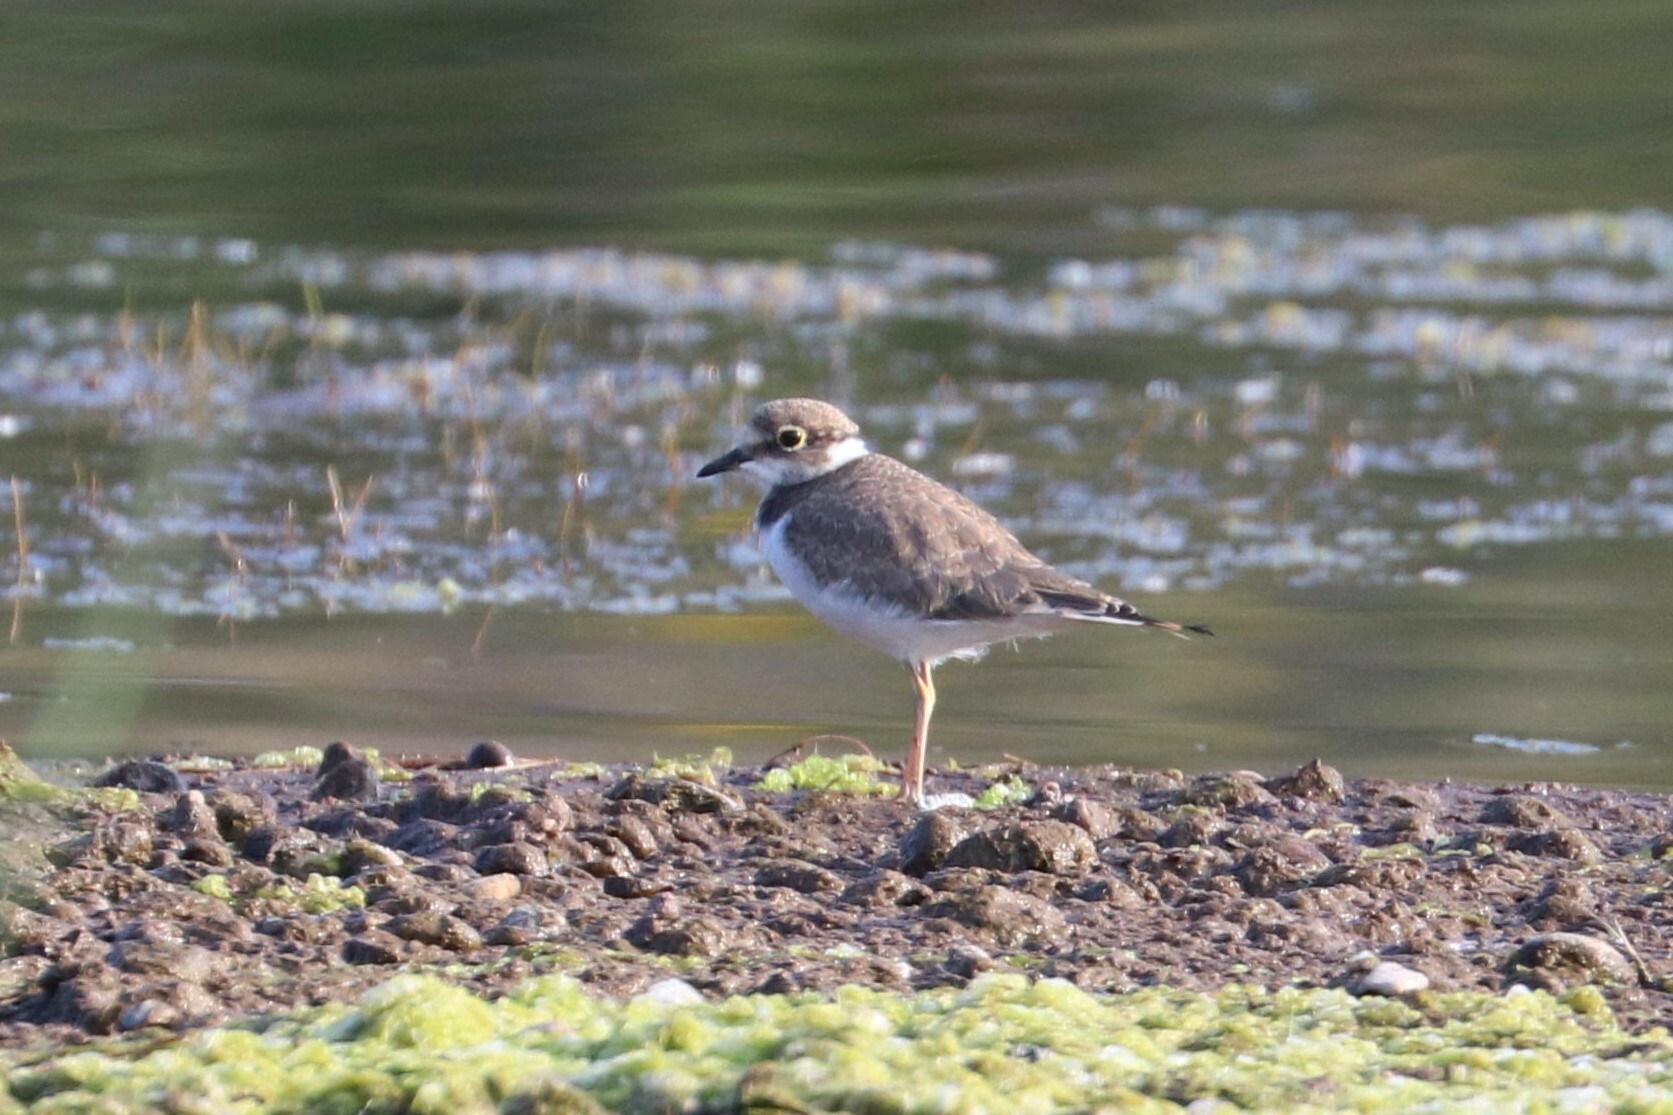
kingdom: Animalia
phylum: Chordata
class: Aves
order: Charadriiformes
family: Charadriidae
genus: Charadrius
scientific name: Charadrius dubius
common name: Little ringed plover
